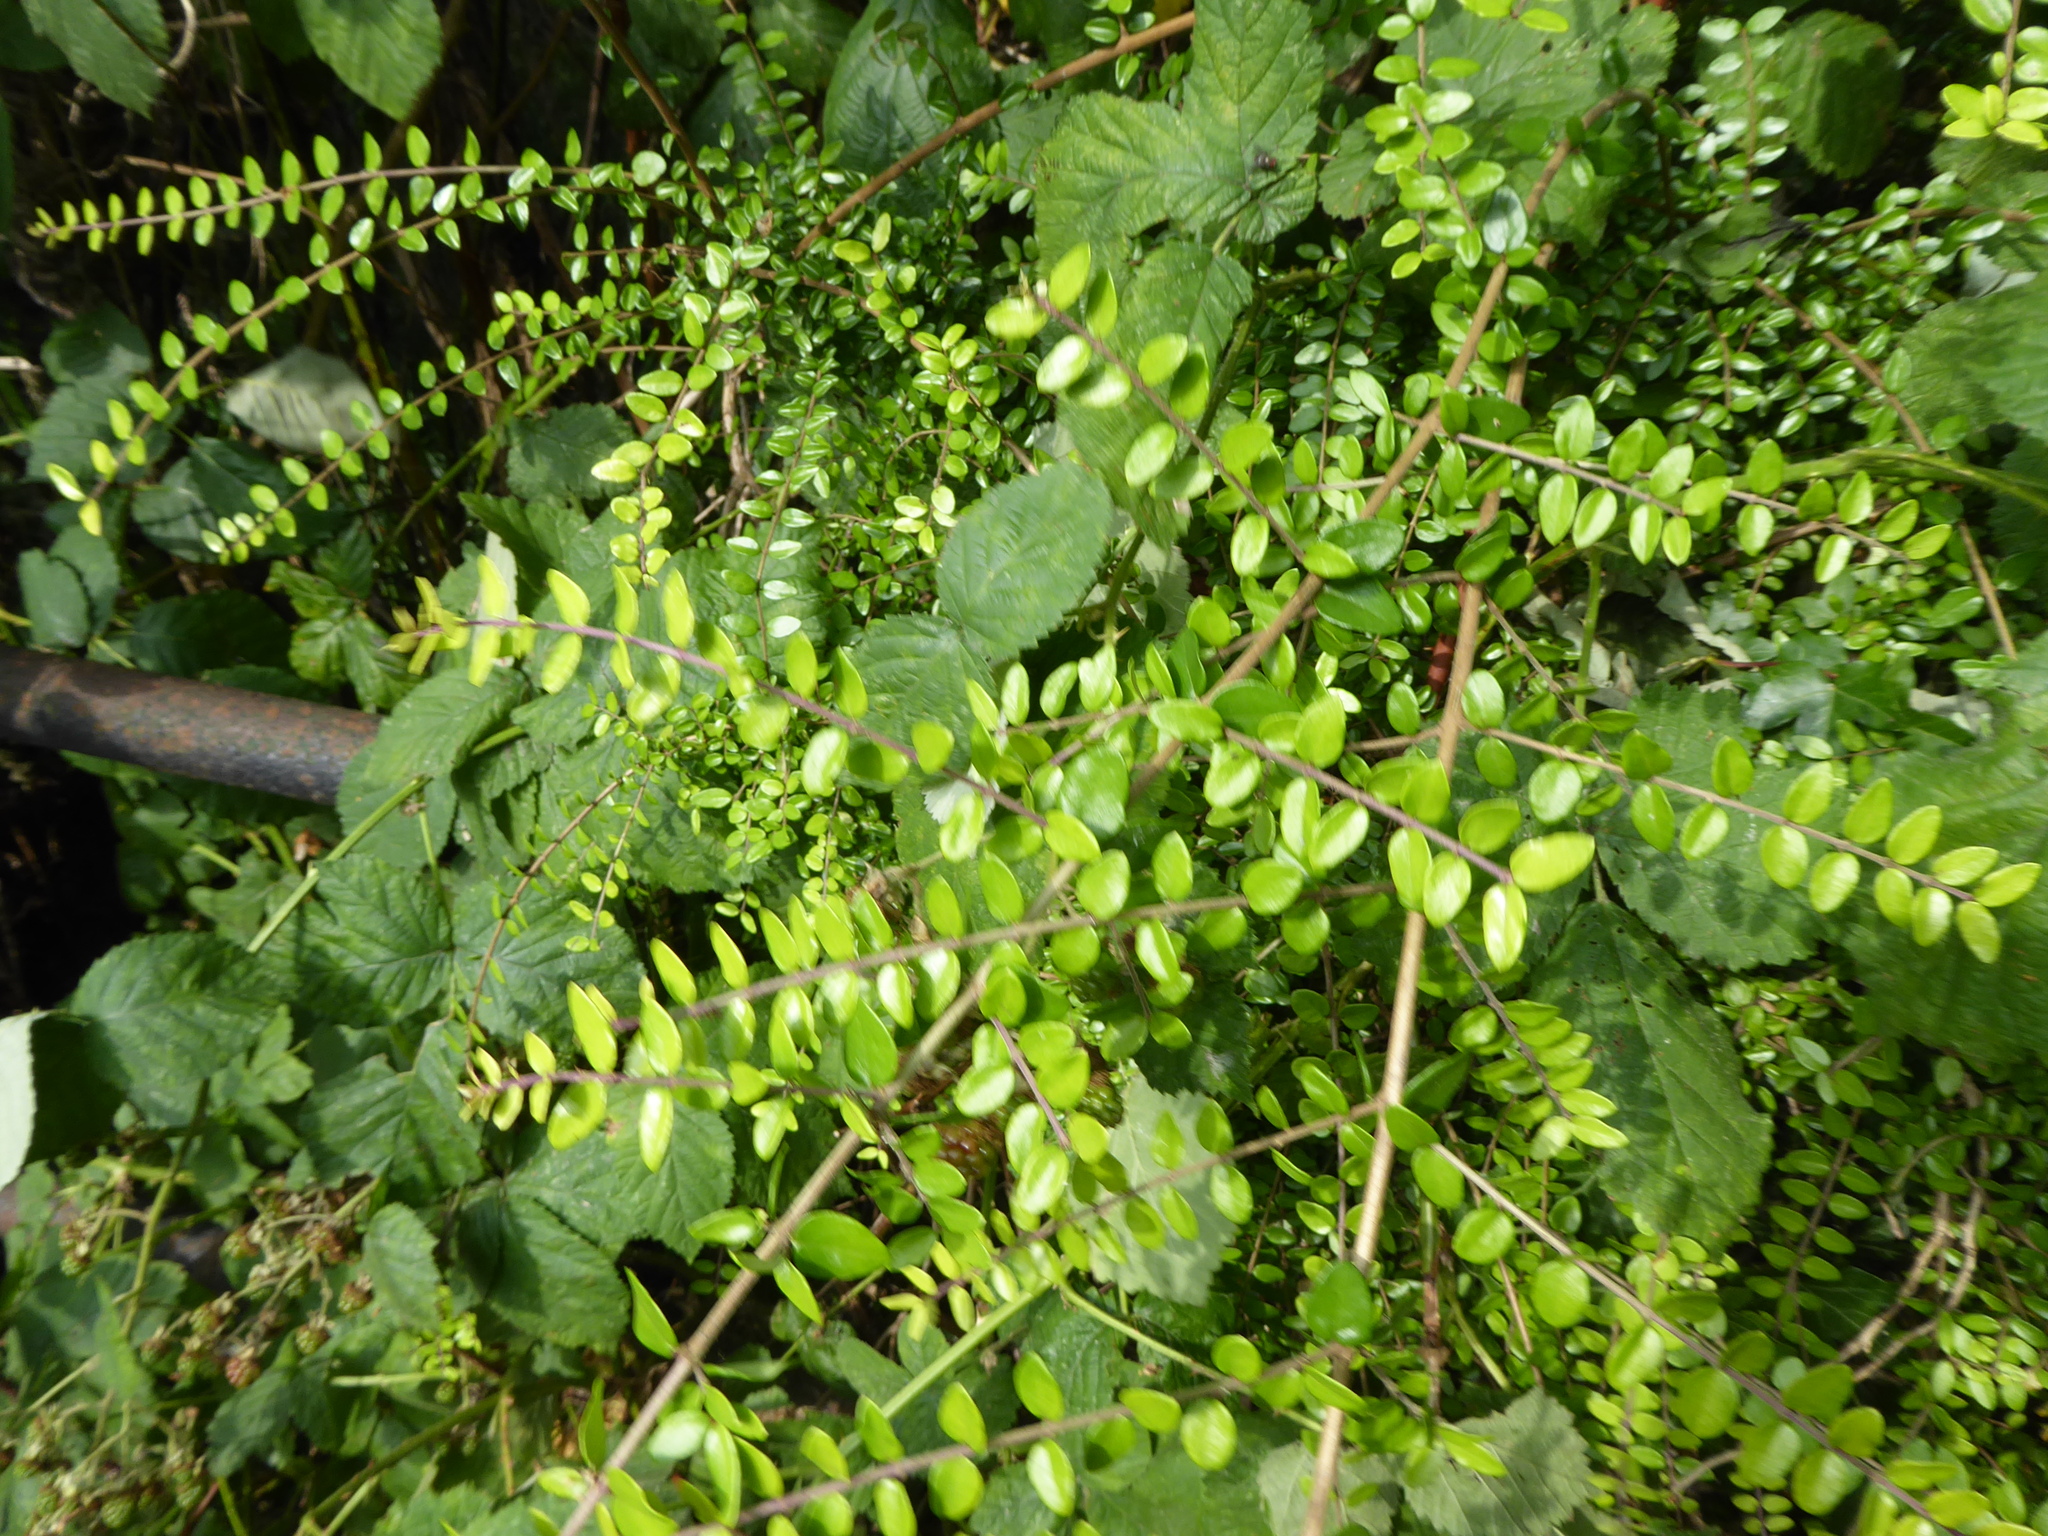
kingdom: Plantae
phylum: Tracheophyta
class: Magnoliopsida
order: Dipsacales
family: Caprifoliaceae
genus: Lonicera
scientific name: Lonicera ligustrina
